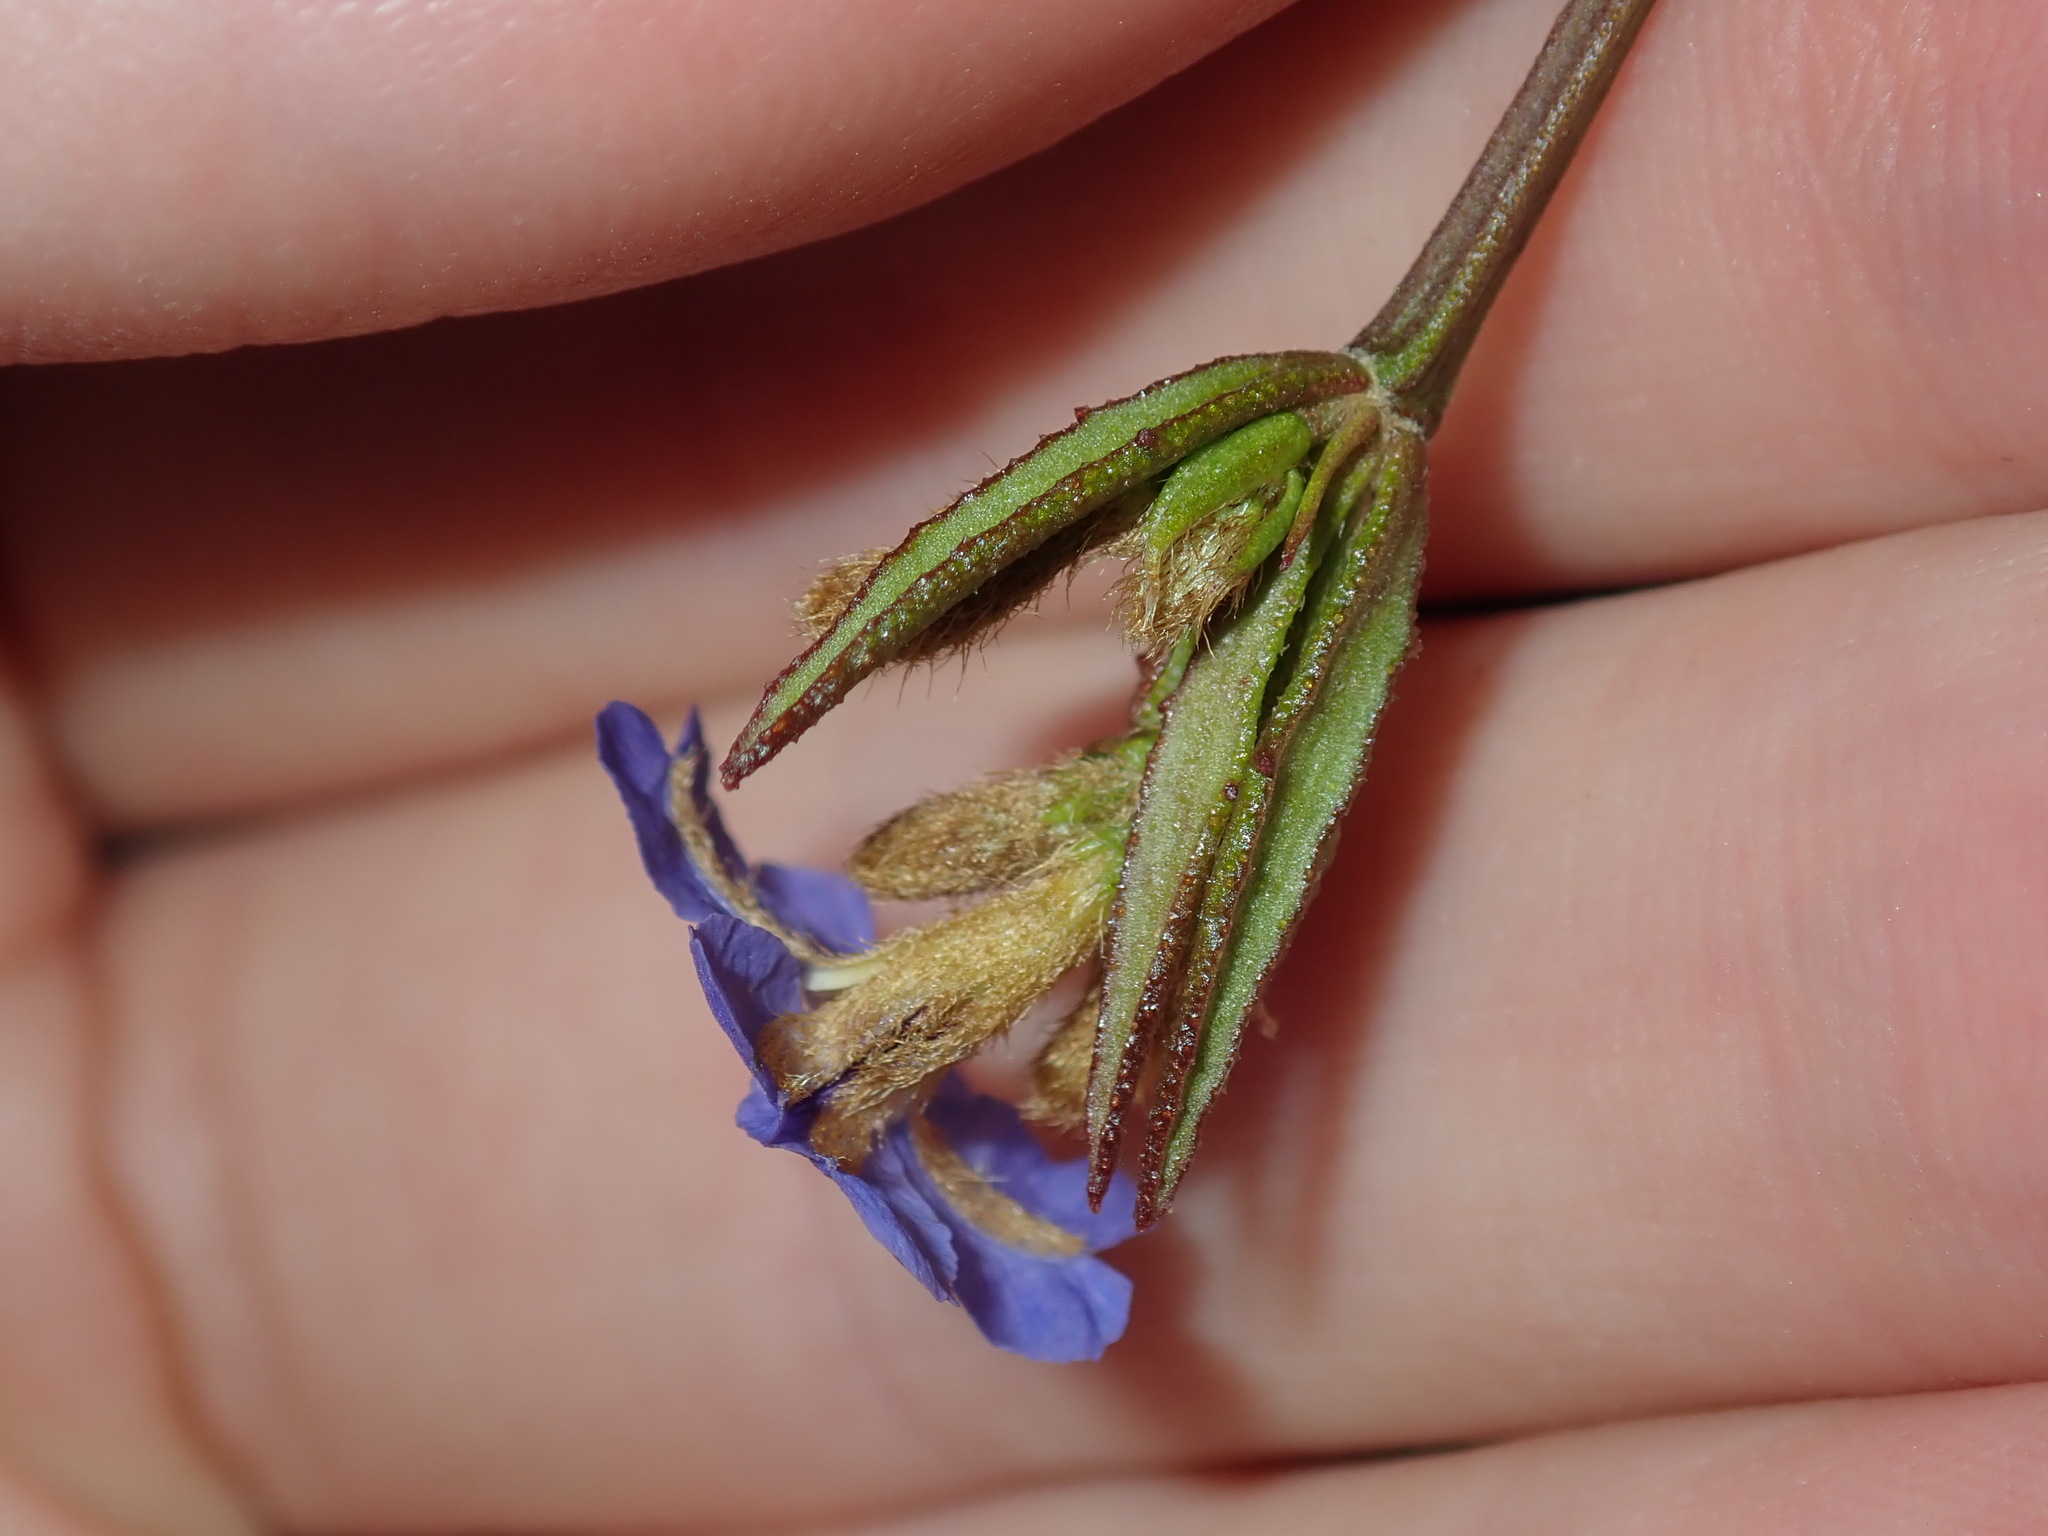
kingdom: Plantae
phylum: Tracheophyta
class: Magnoliopsida
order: Asterales
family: Goodeniaceae
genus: Dampiera
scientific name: Dampiera stricta
